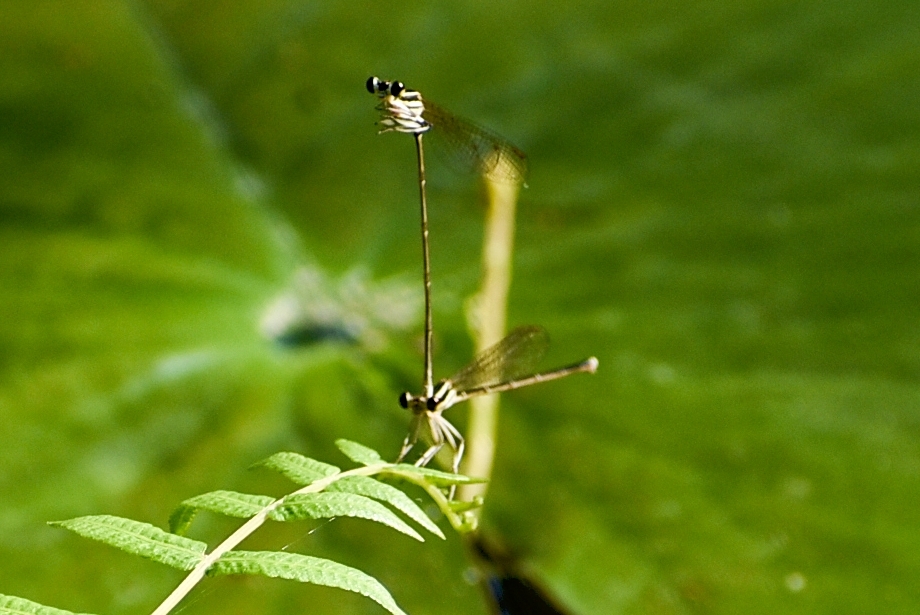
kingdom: Animalia
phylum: Arthropoda
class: Insecta
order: Odonata
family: Platycnemididae
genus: Pseudocopera
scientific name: Pseudocopera ciliata
